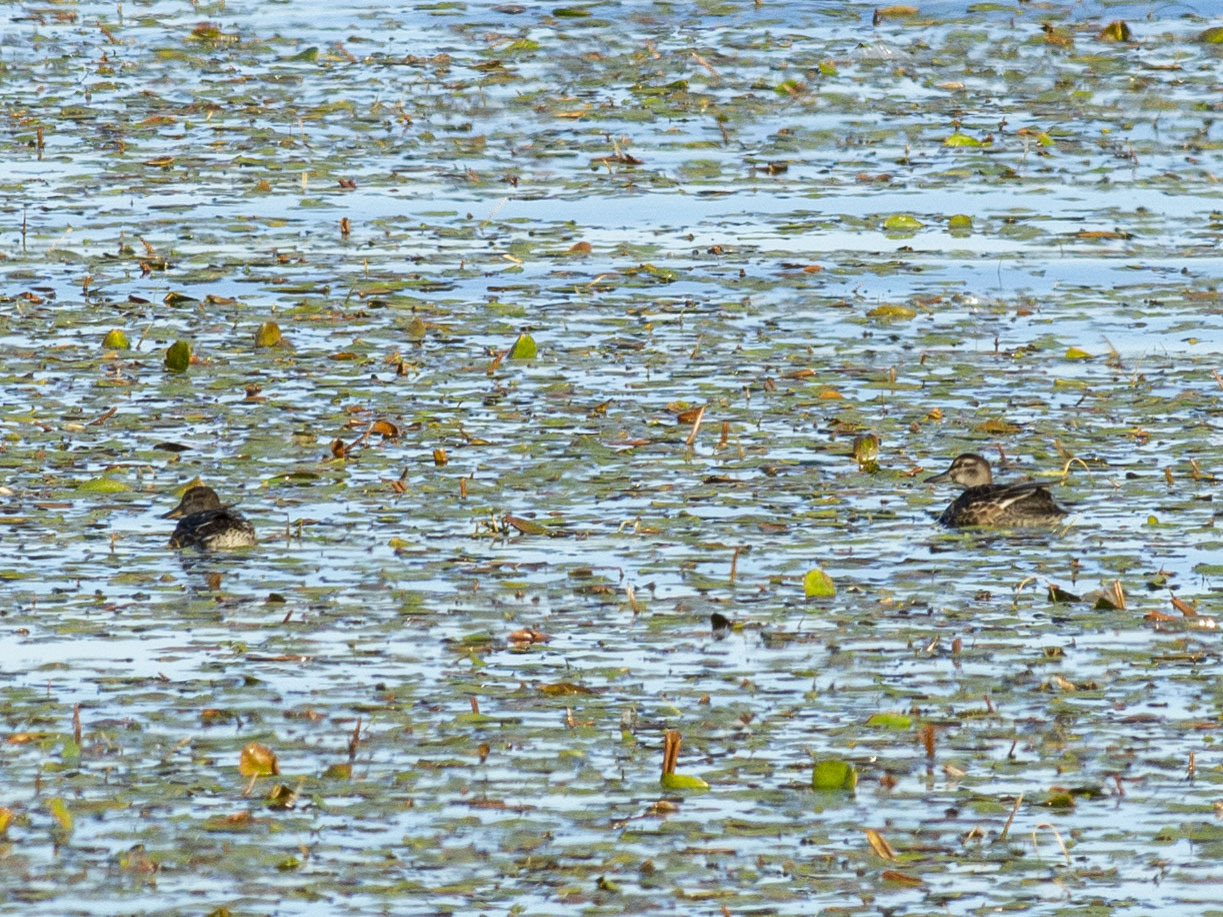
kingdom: Animalia
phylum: Chordata
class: Aves
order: Anseriformes
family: Anatidae
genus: Spatula
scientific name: Spatula querquedula
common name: Garganey
